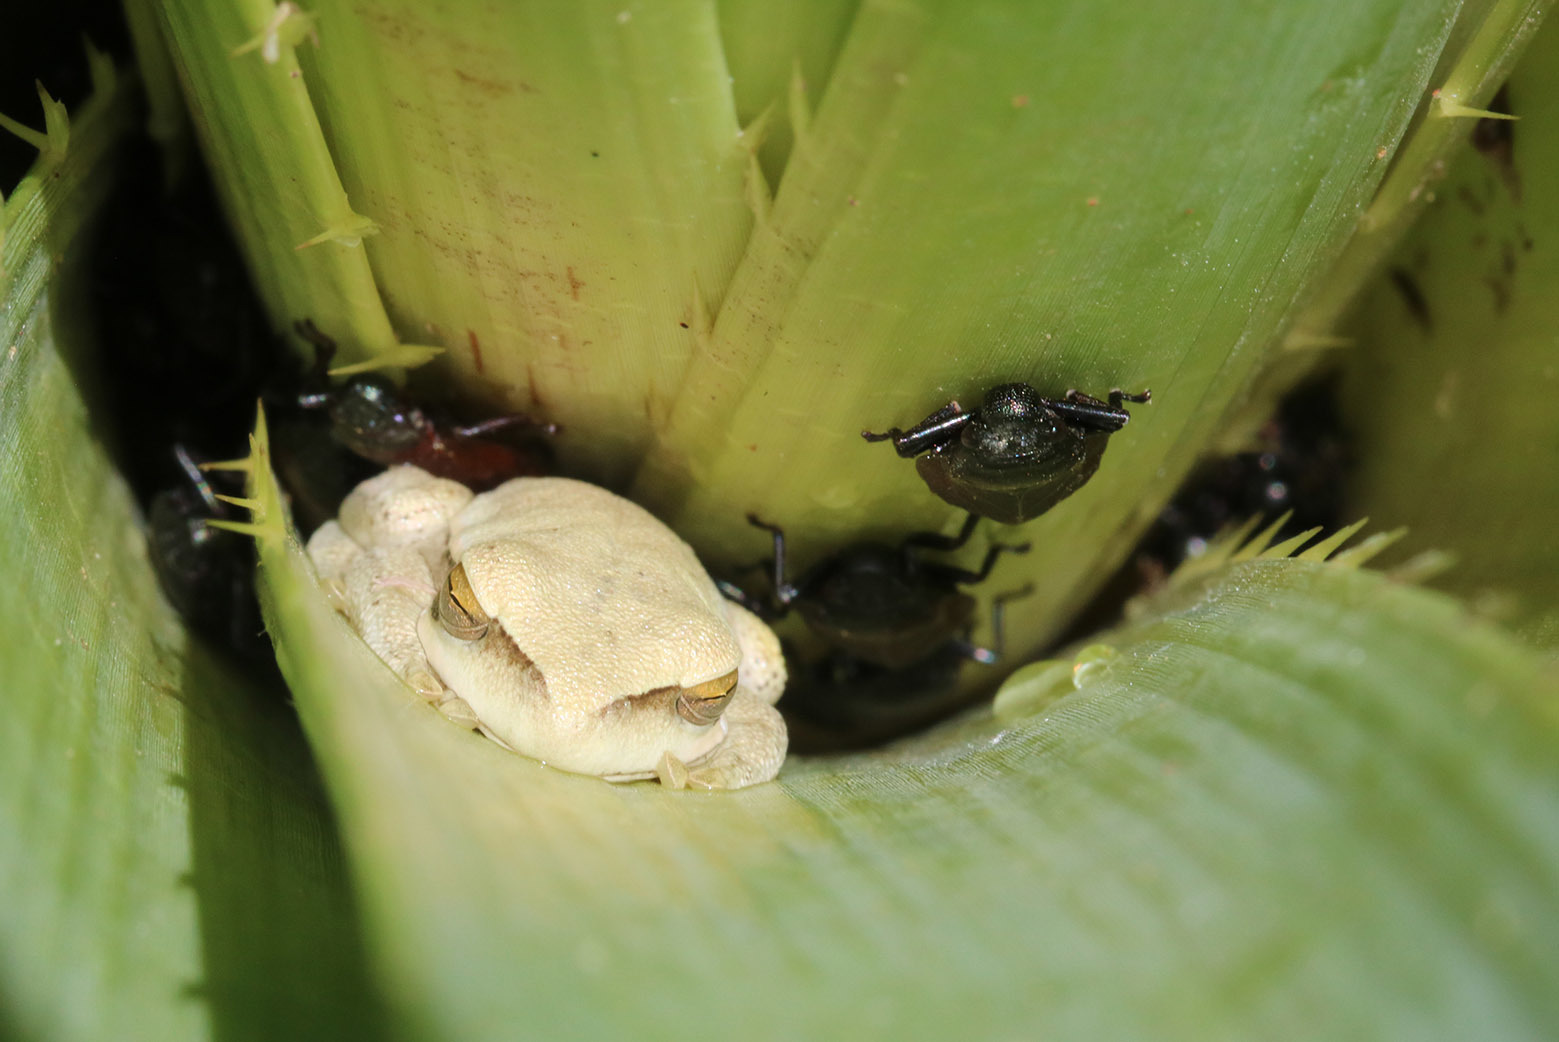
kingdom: Animalia
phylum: Chordata
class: Amphibia
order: Anura
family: Hylidae
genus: Boana
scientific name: Boana pulchella
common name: Montevideo treefrog
